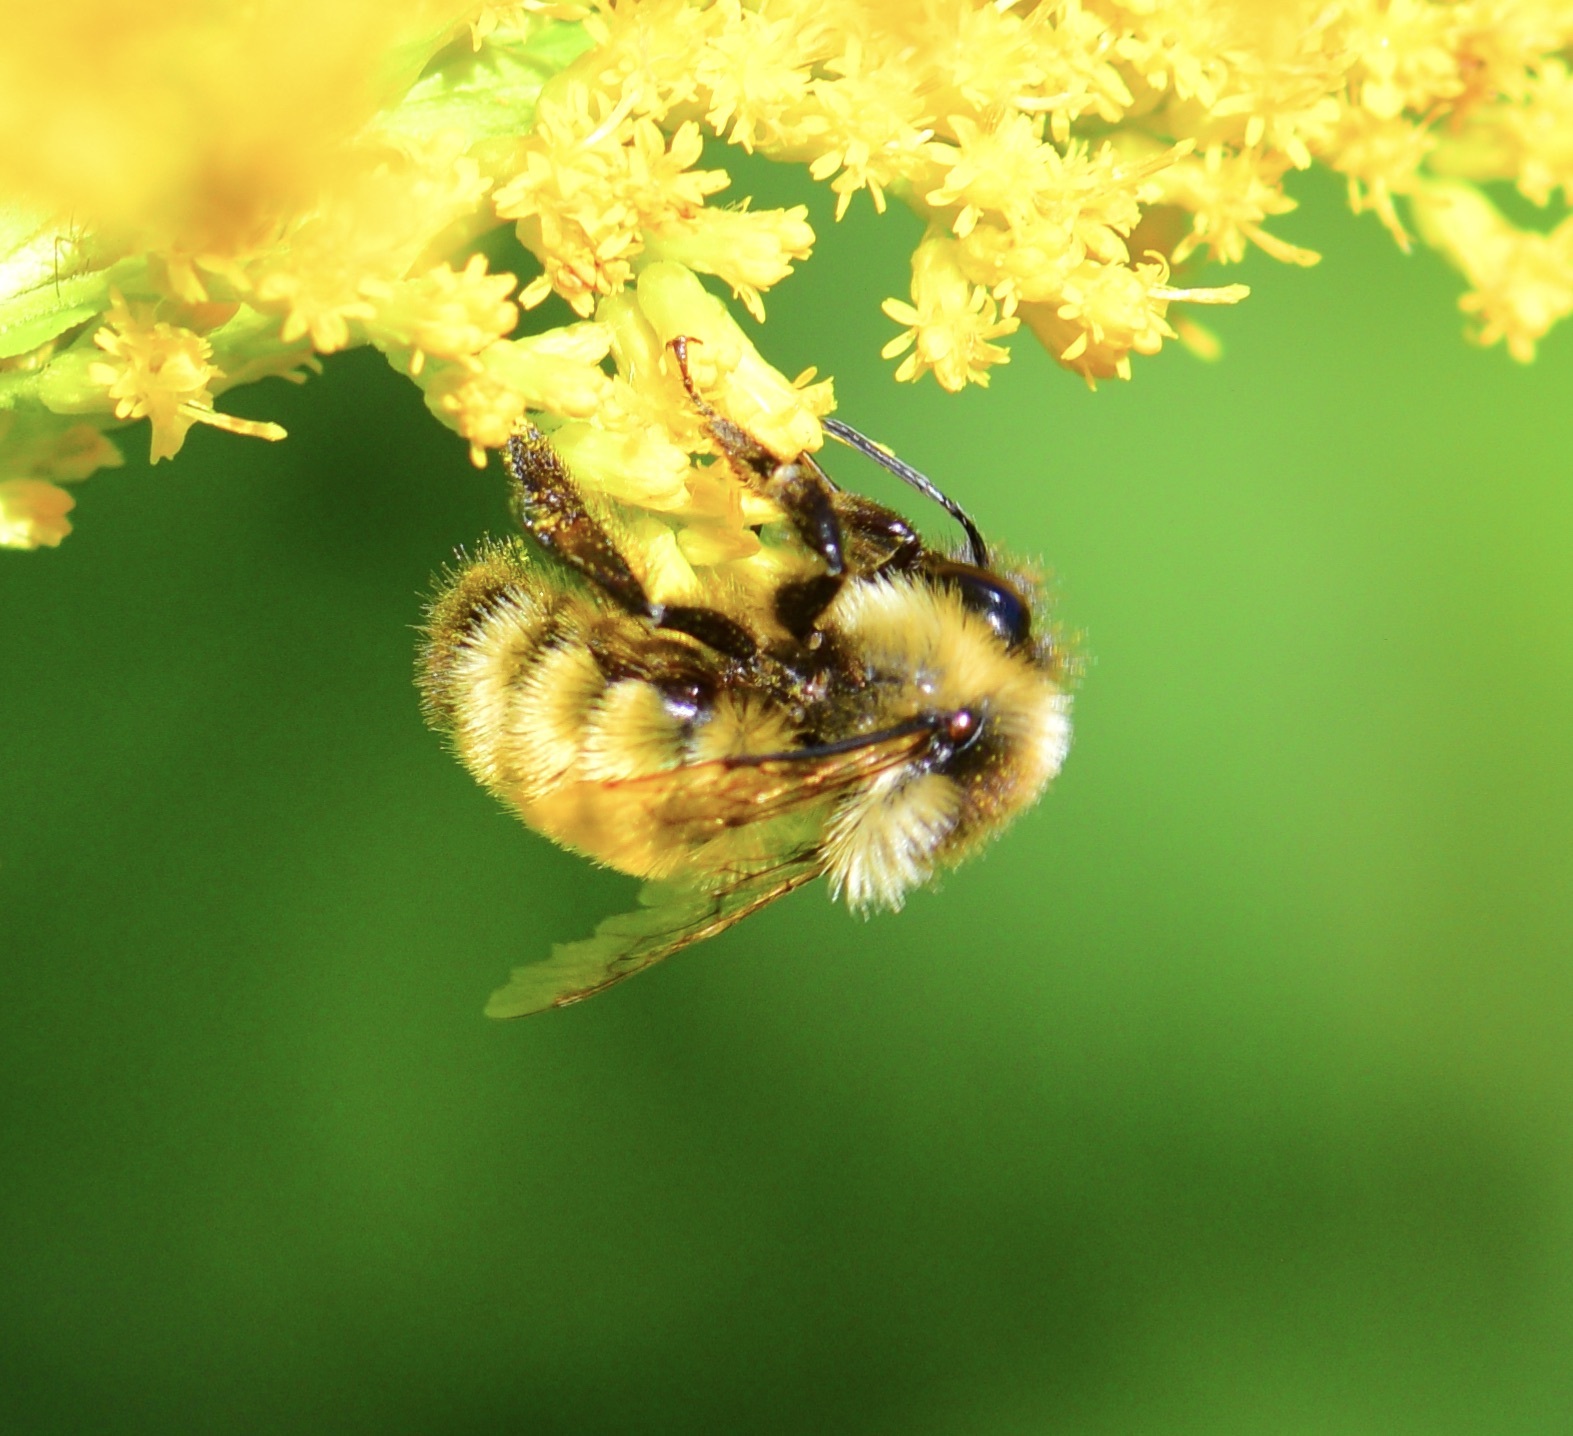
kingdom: Animalia
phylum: Arthropoda
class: Insecta
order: Hymenoptera
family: Apidae
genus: Bombus
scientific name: Bombus ternarius
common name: Tri-colored bumble bee
